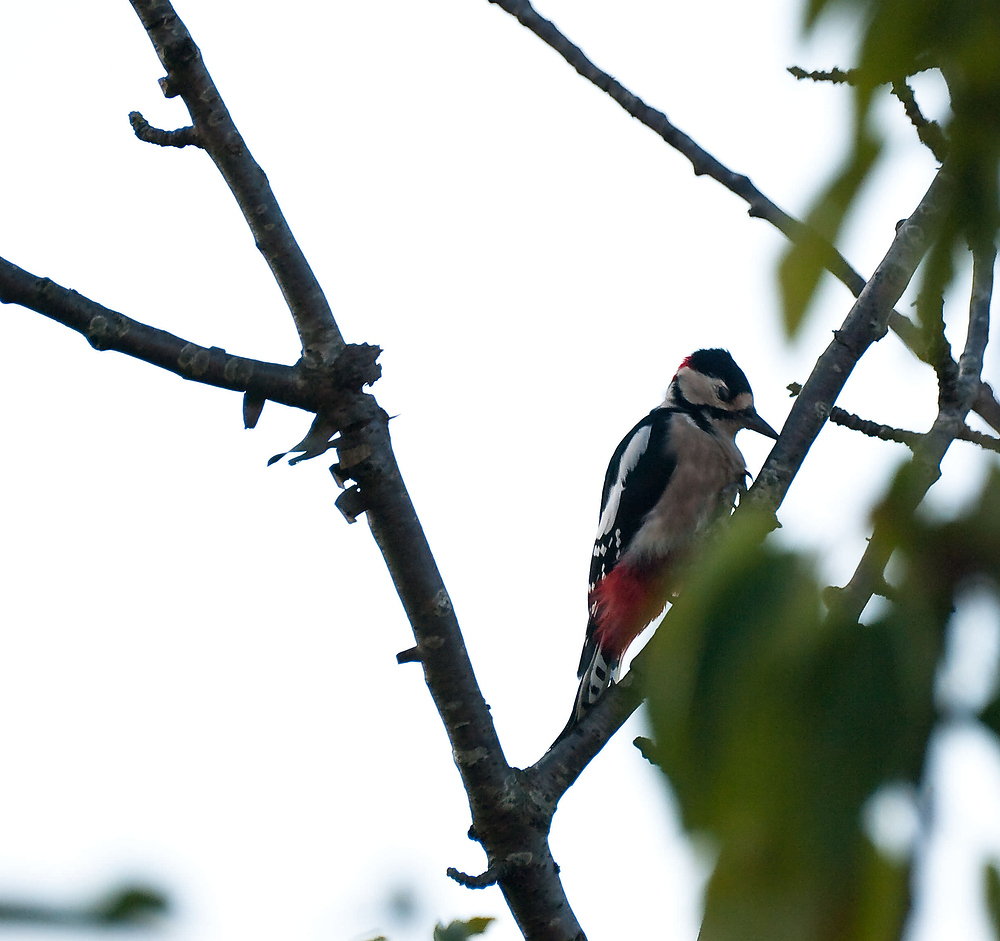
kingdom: Animalia
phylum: Chordata
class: Aves
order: Piciformes
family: Picidae
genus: Dendrocopos
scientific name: Dendrocopos major
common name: Great spotted woodpecker
